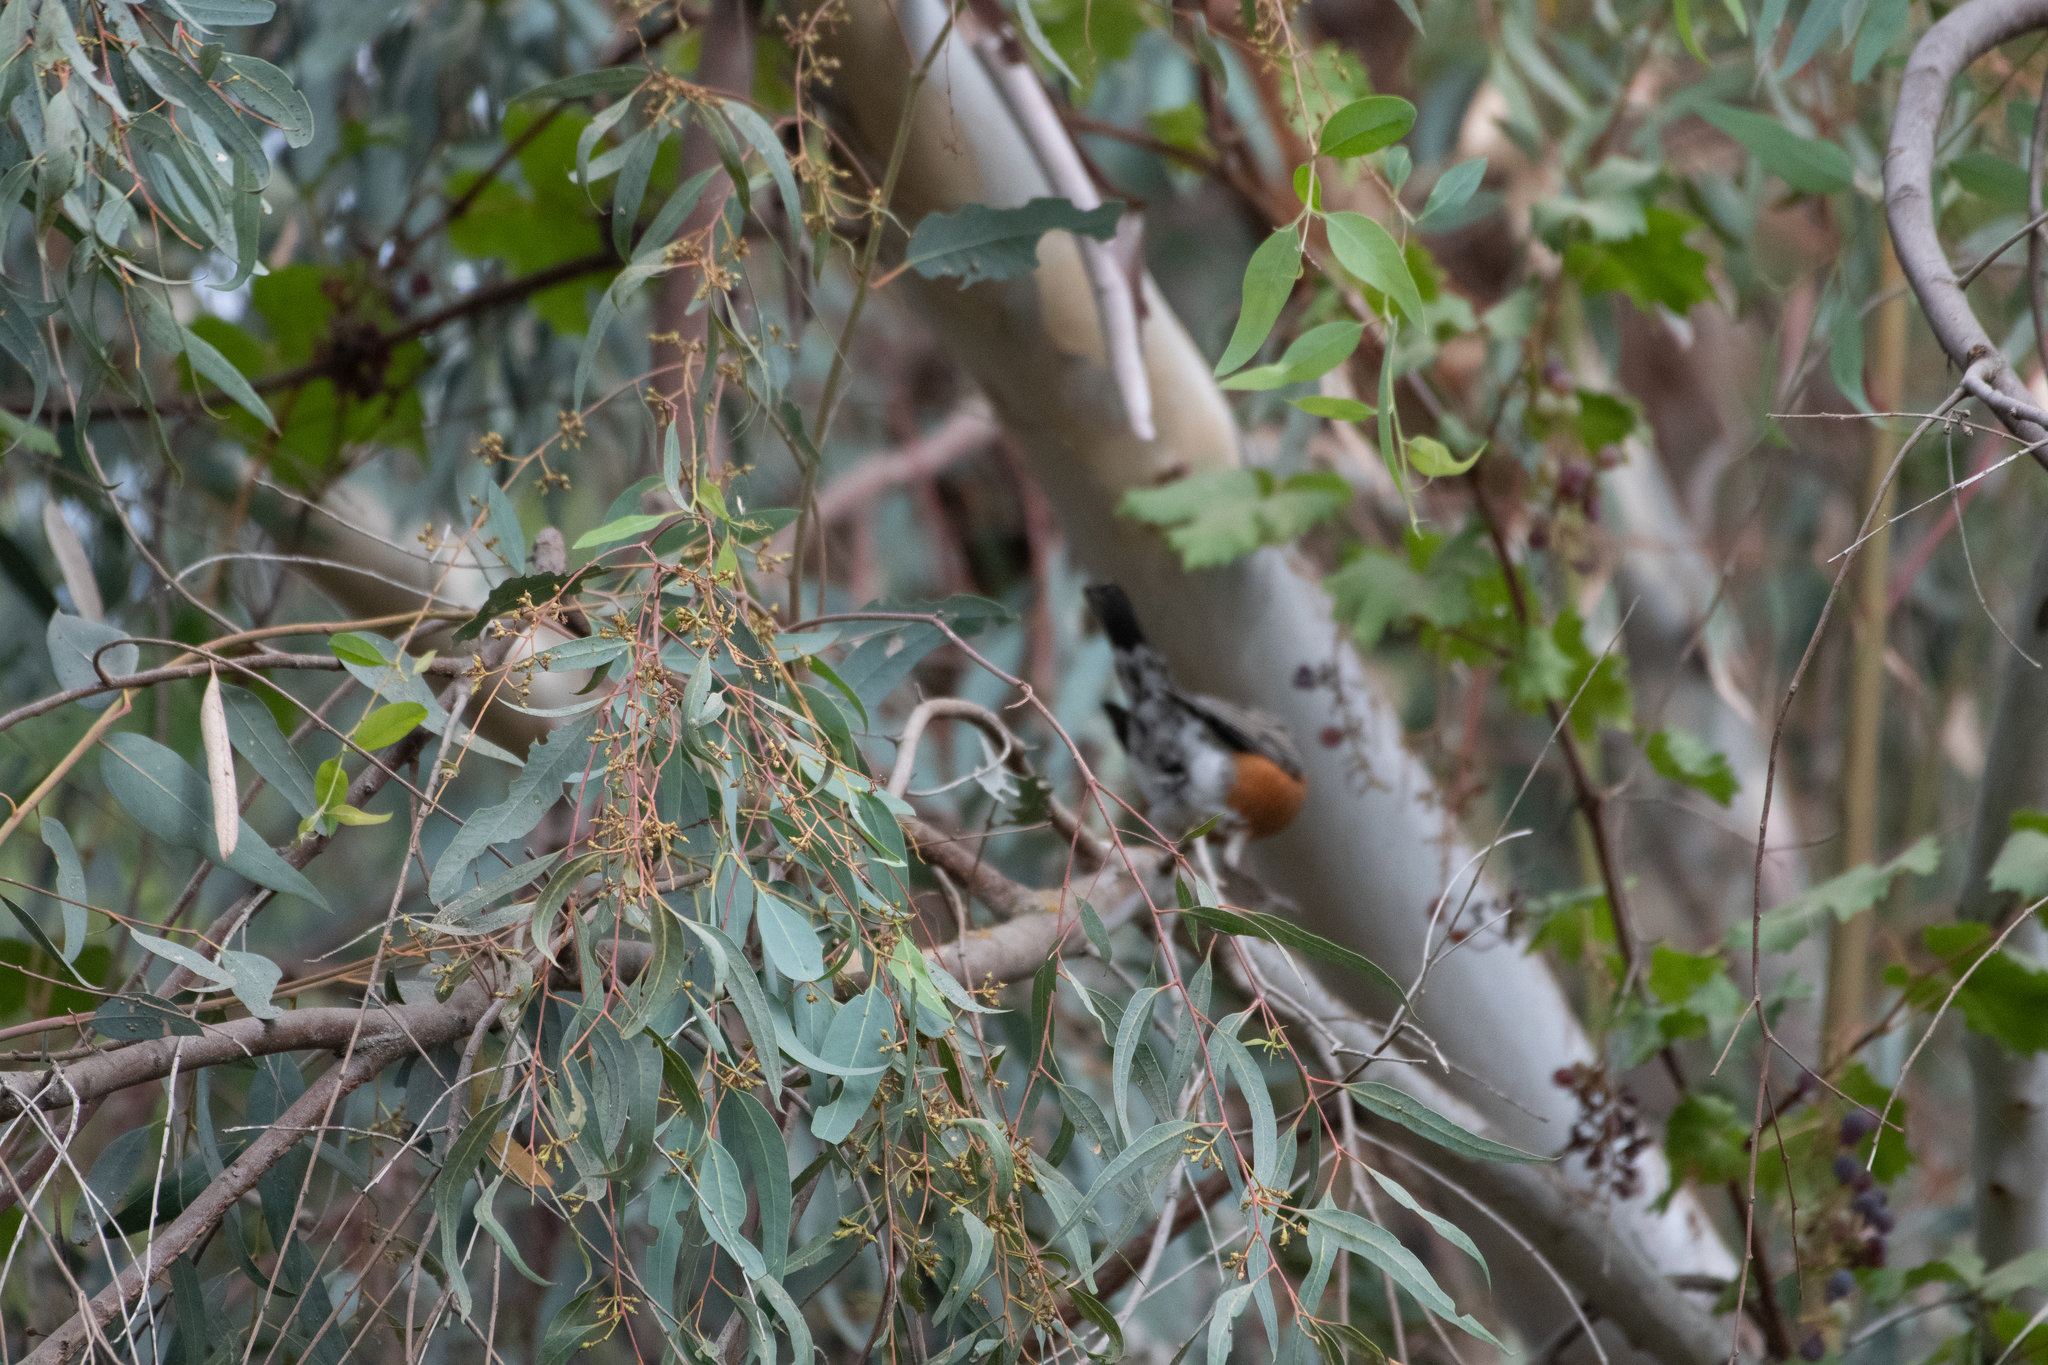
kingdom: Animalia
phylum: Chordata
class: Aves
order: Passeriformes
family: Passerellidae
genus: Pipilo
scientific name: Pipilo maculatus
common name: Spotted towhee
